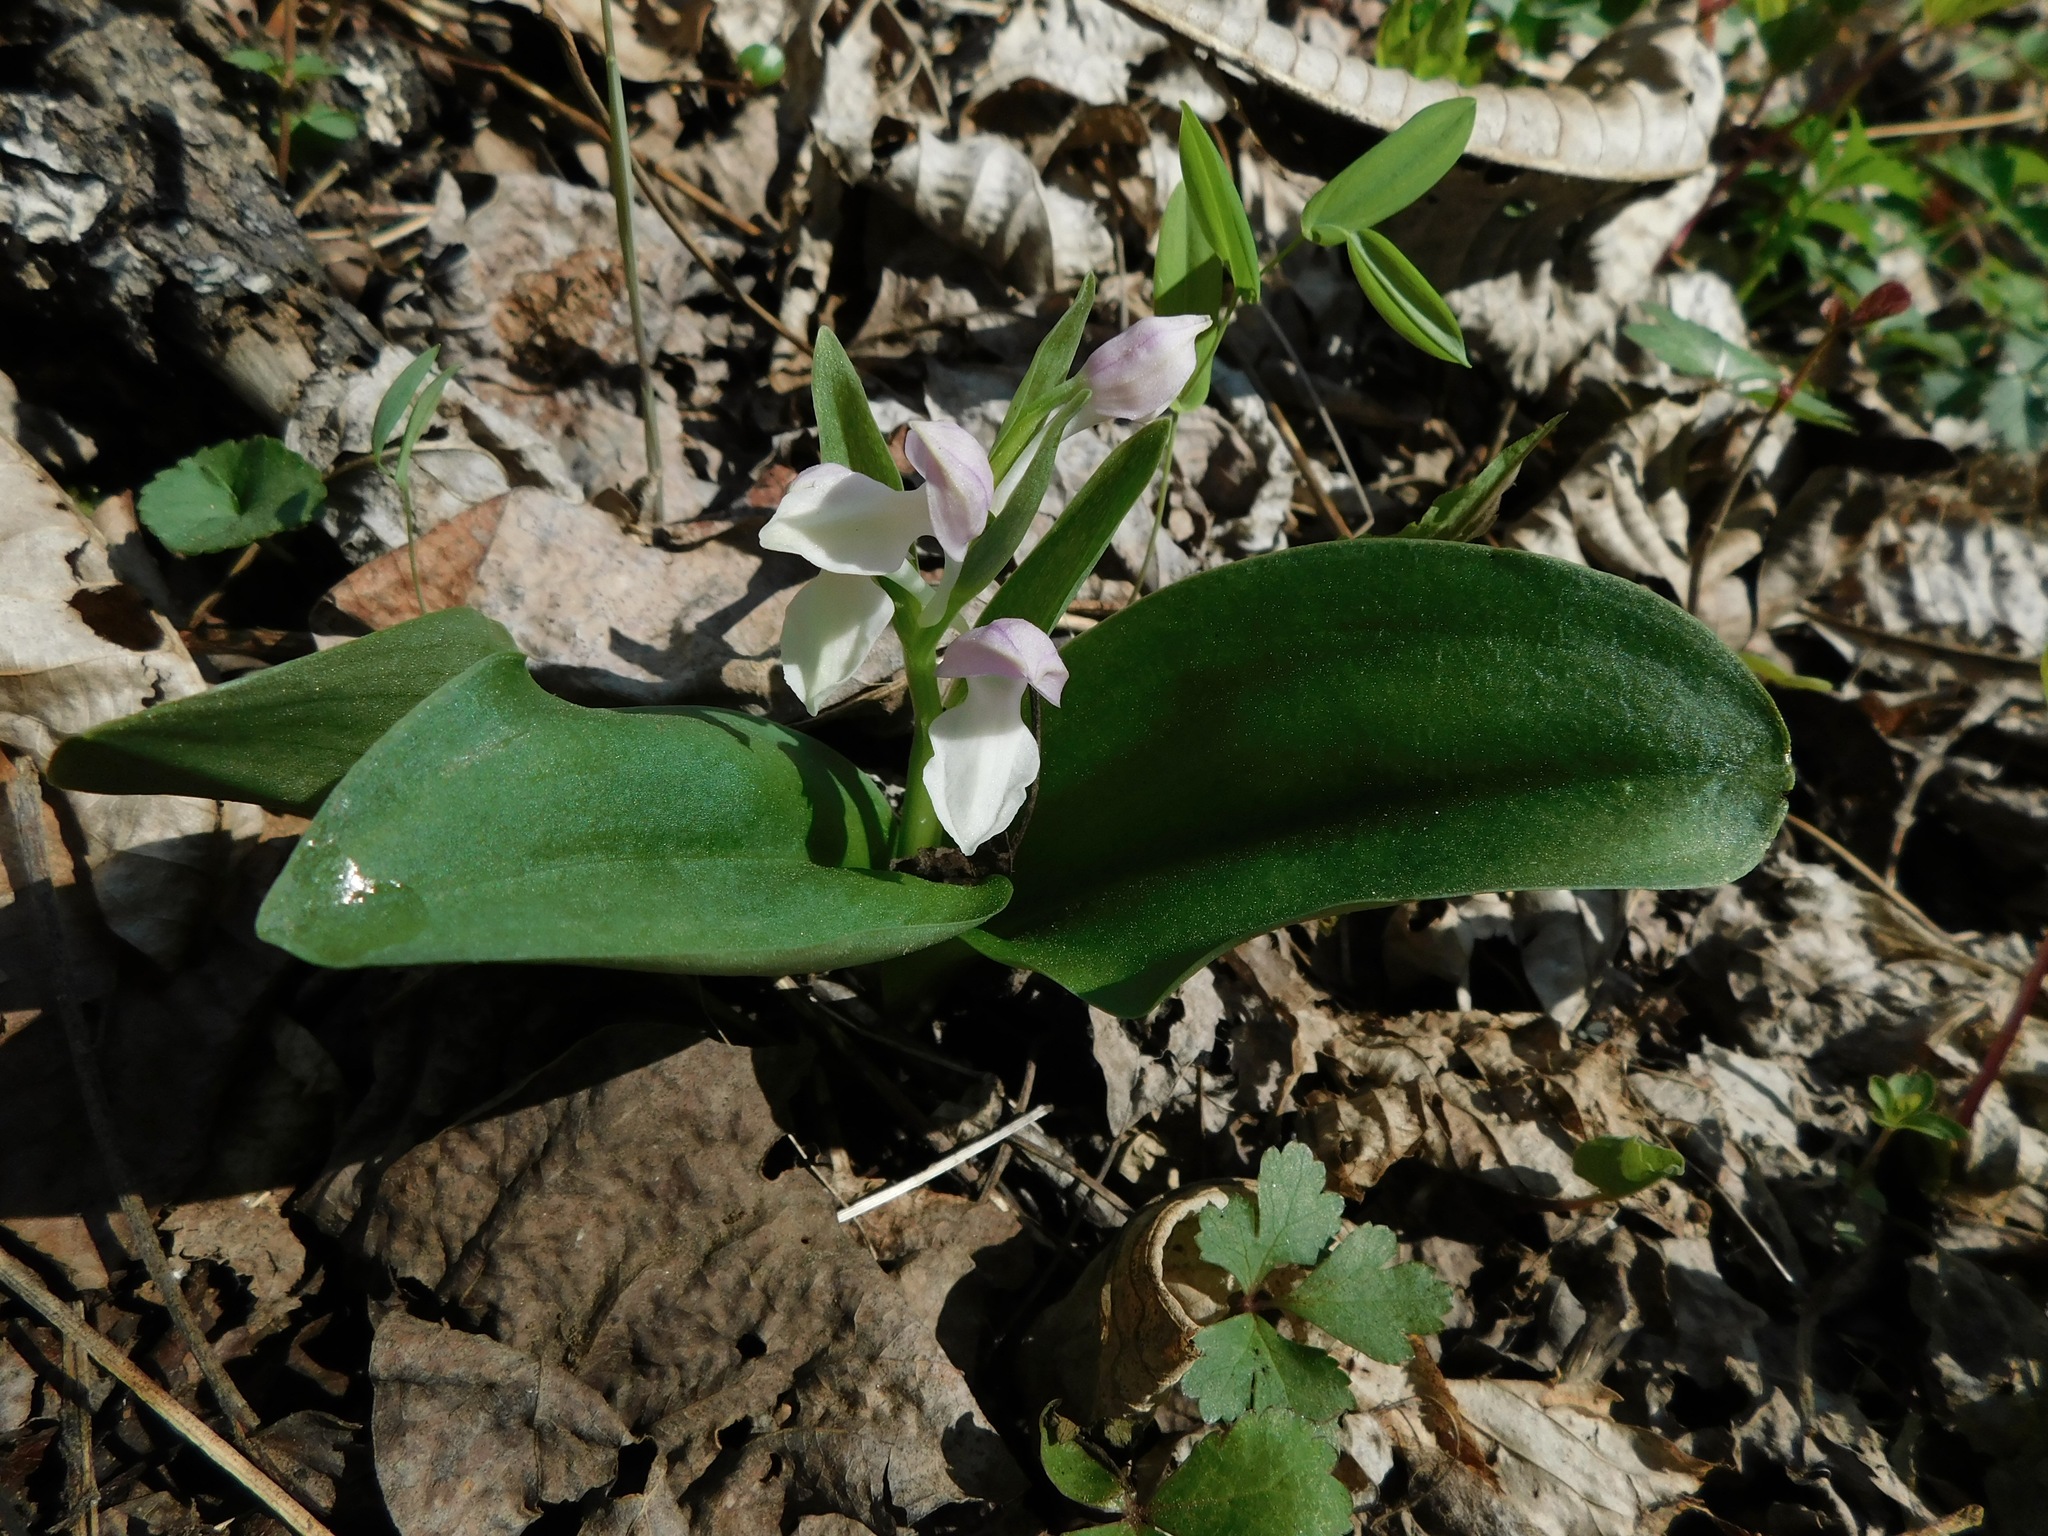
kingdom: Plantae
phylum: Tracheophyta
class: Liliopsida
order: Asparagales
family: Orchidaceae
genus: Galearis
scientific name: Galearis spectabilis
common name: Purple-hooded orchis
